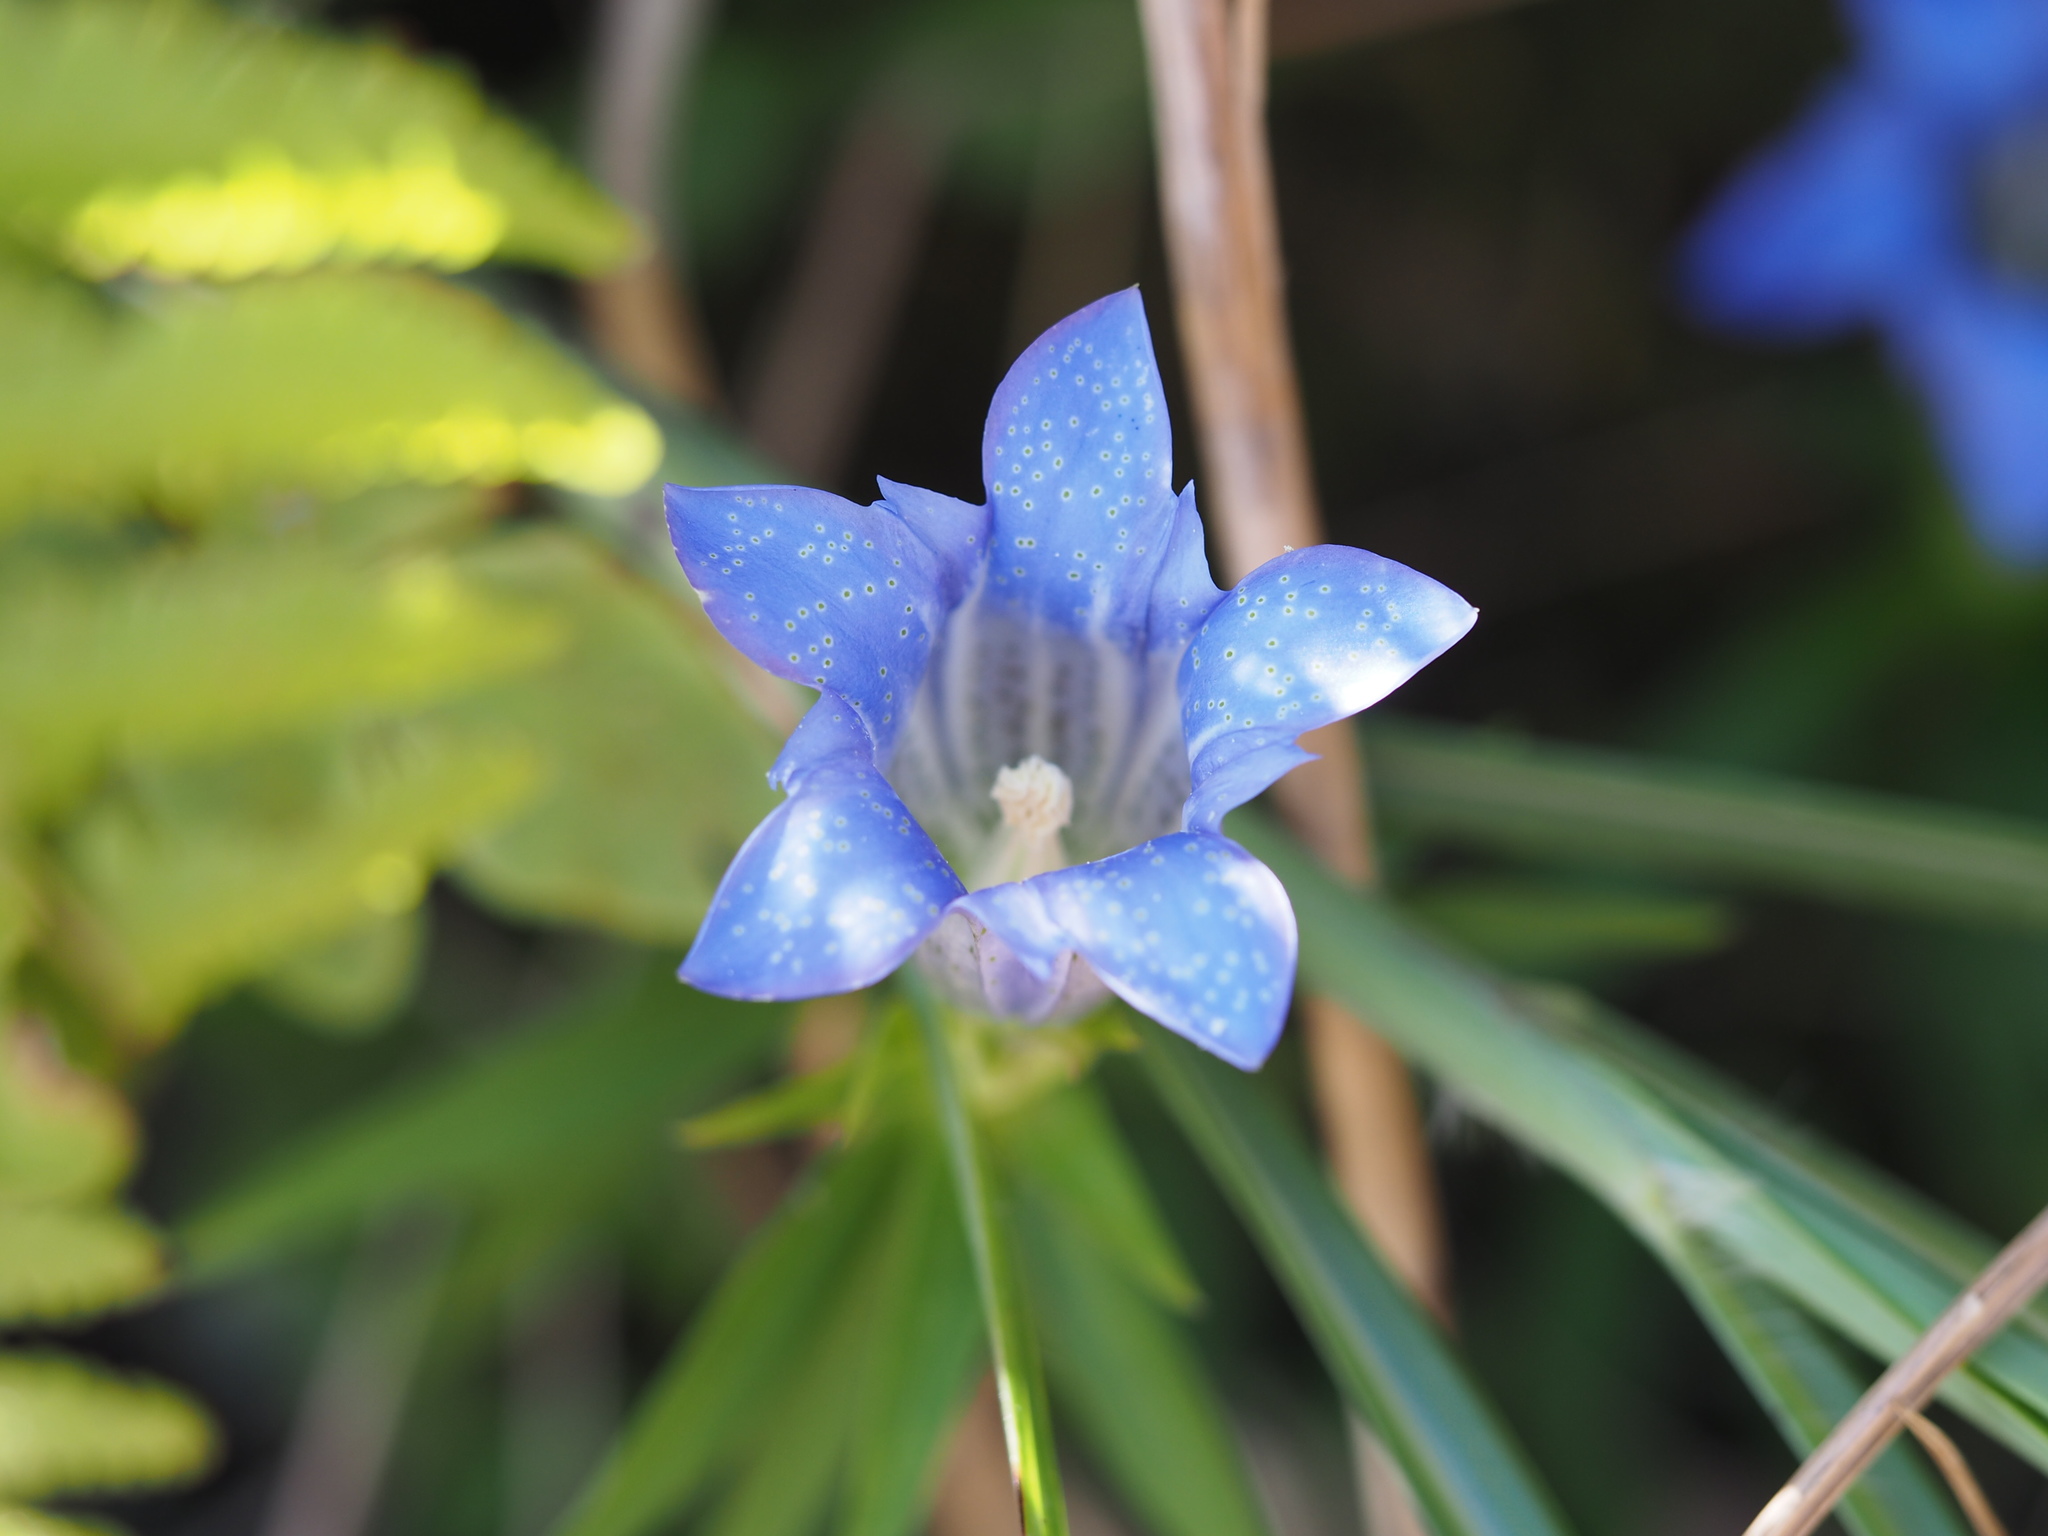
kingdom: Plantae
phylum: Tracheophyta
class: Magnoliopsida
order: Gentianales
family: Gentianaceae
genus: Gentiana
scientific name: Gentiana scabra
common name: Scabrous gentian
